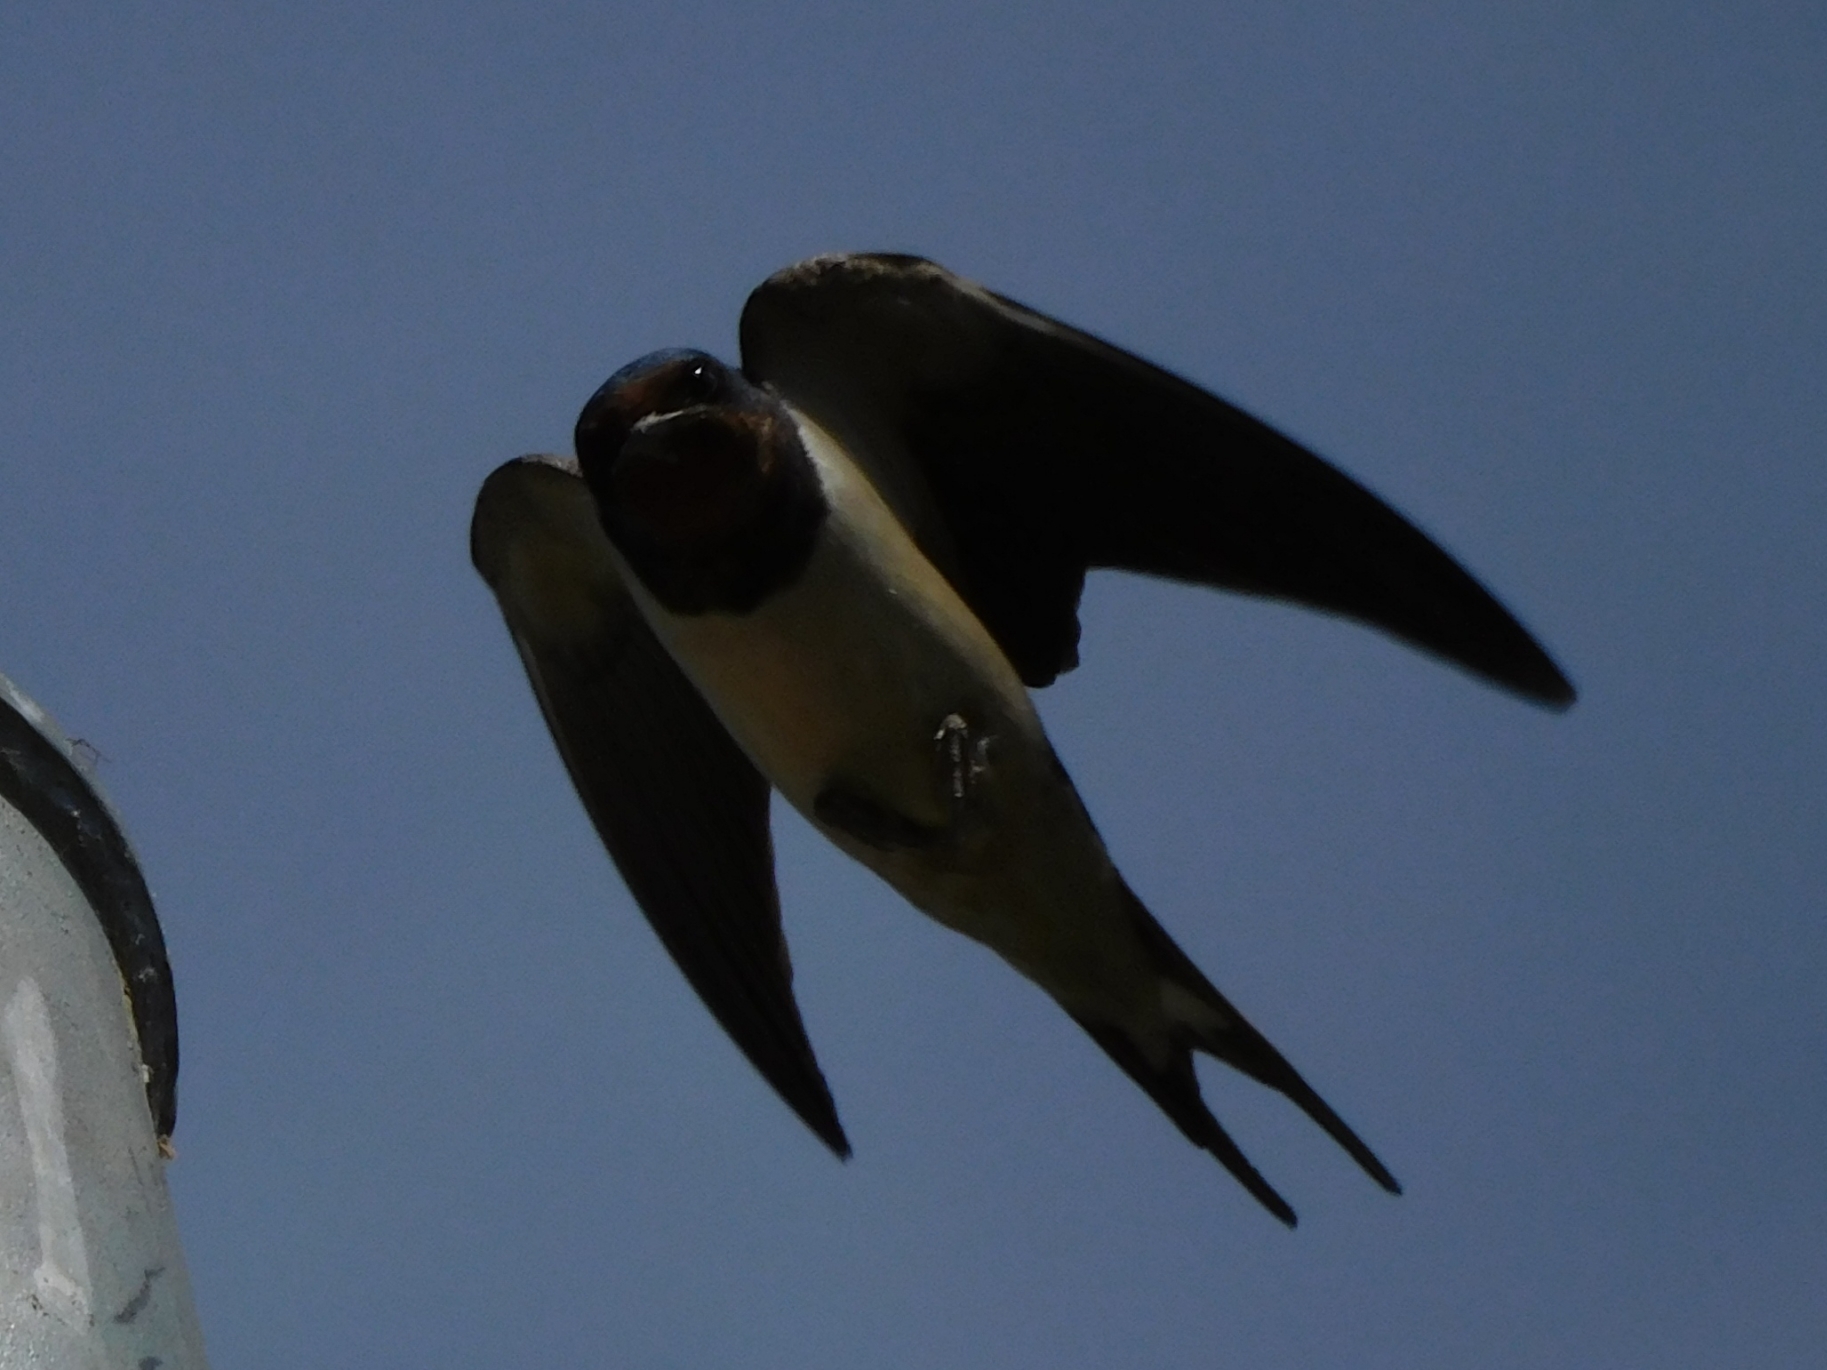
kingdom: Animalia
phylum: Chordata
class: Aves
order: Passeriformes
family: Hirundinidae
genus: Hirundo
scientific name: Hirundo rustica
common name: Barn swallow
